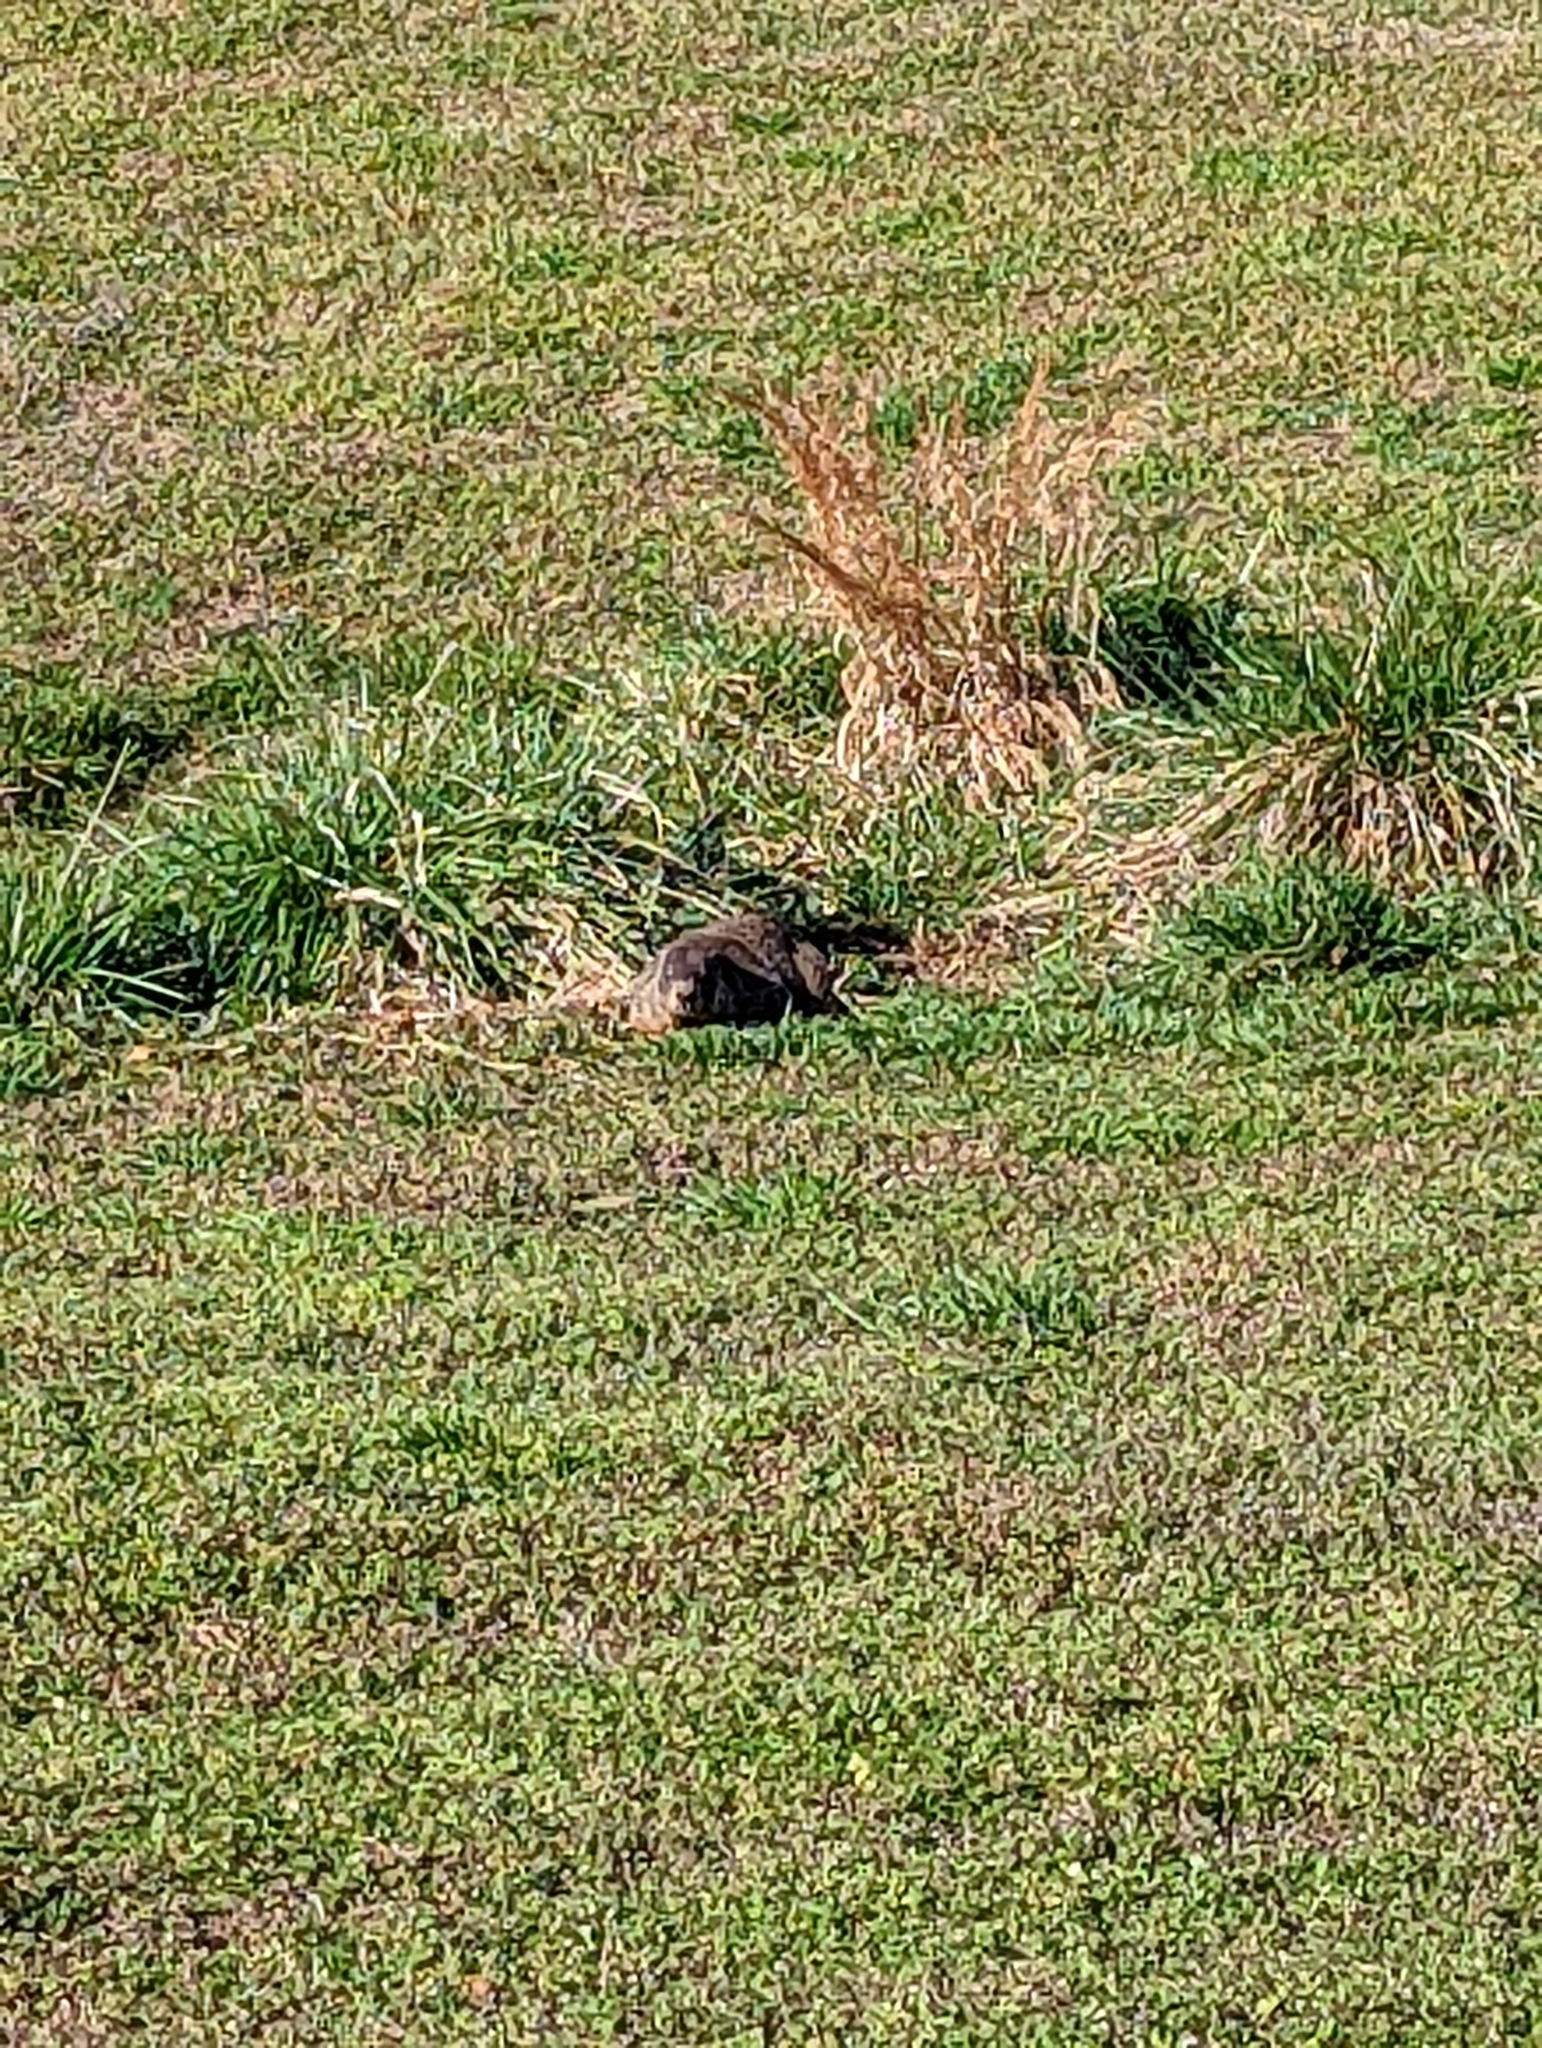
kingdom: Animalia
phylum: Chordata
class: Mammalia
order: Rodentia
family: Sciuridae
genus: Marmota
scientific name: Marmota monax
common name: Groundhog
